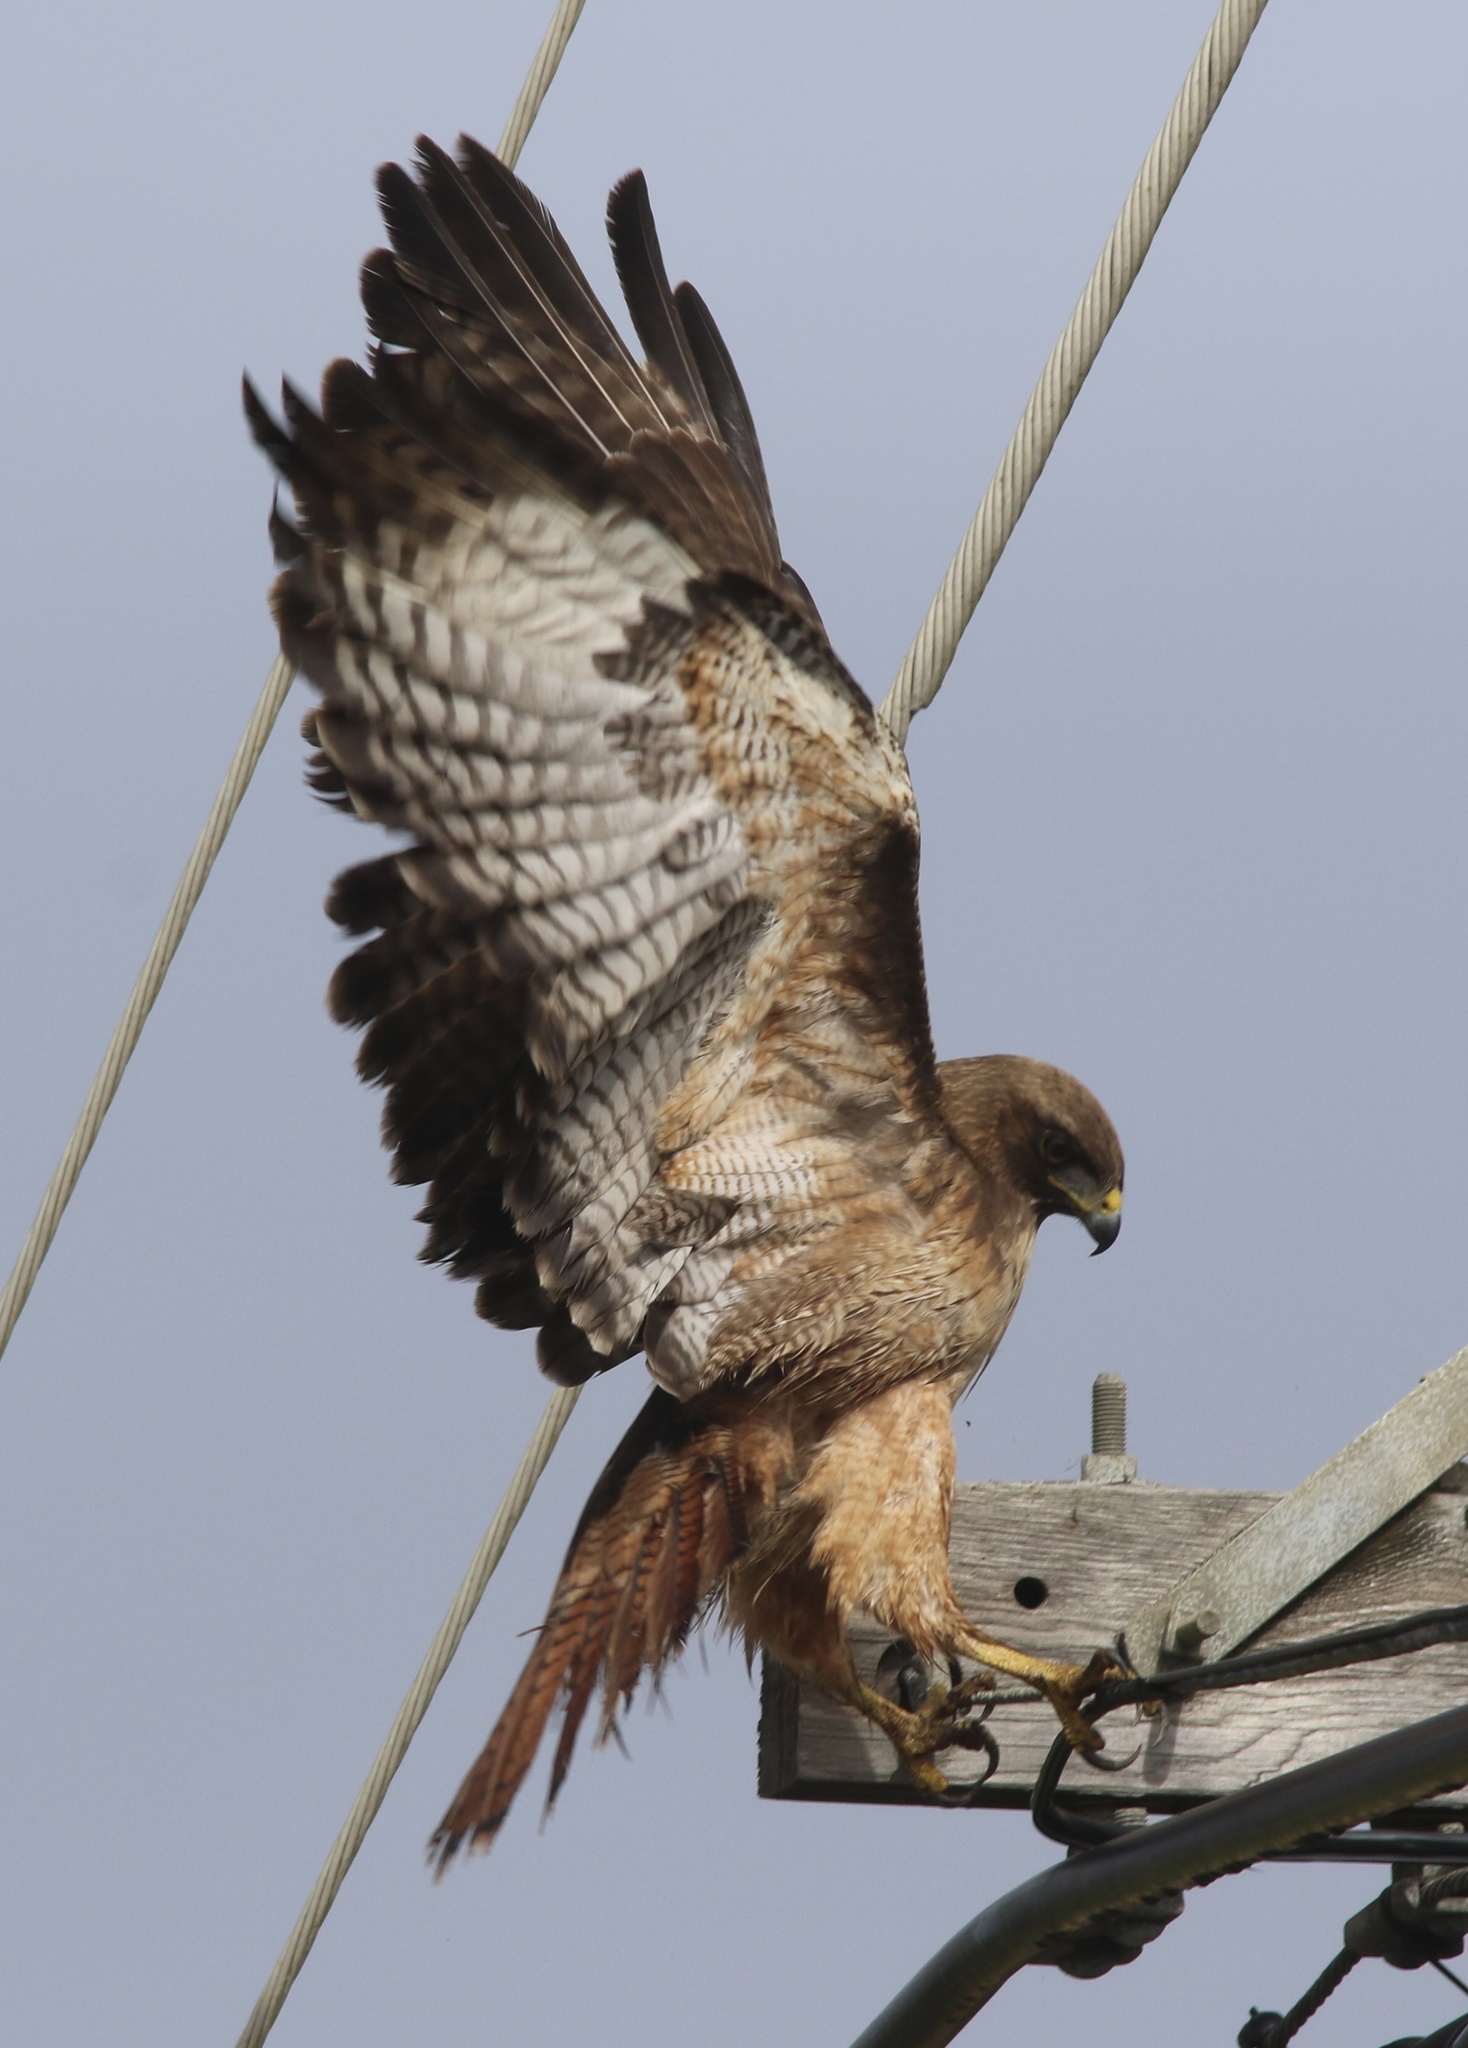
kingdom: Animalia
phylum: Chordata
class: Aves
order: Accipitriformes
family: Accipitridae
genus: Buteo
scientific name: Buteo jamaicensis
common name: Red-tailed hawk
